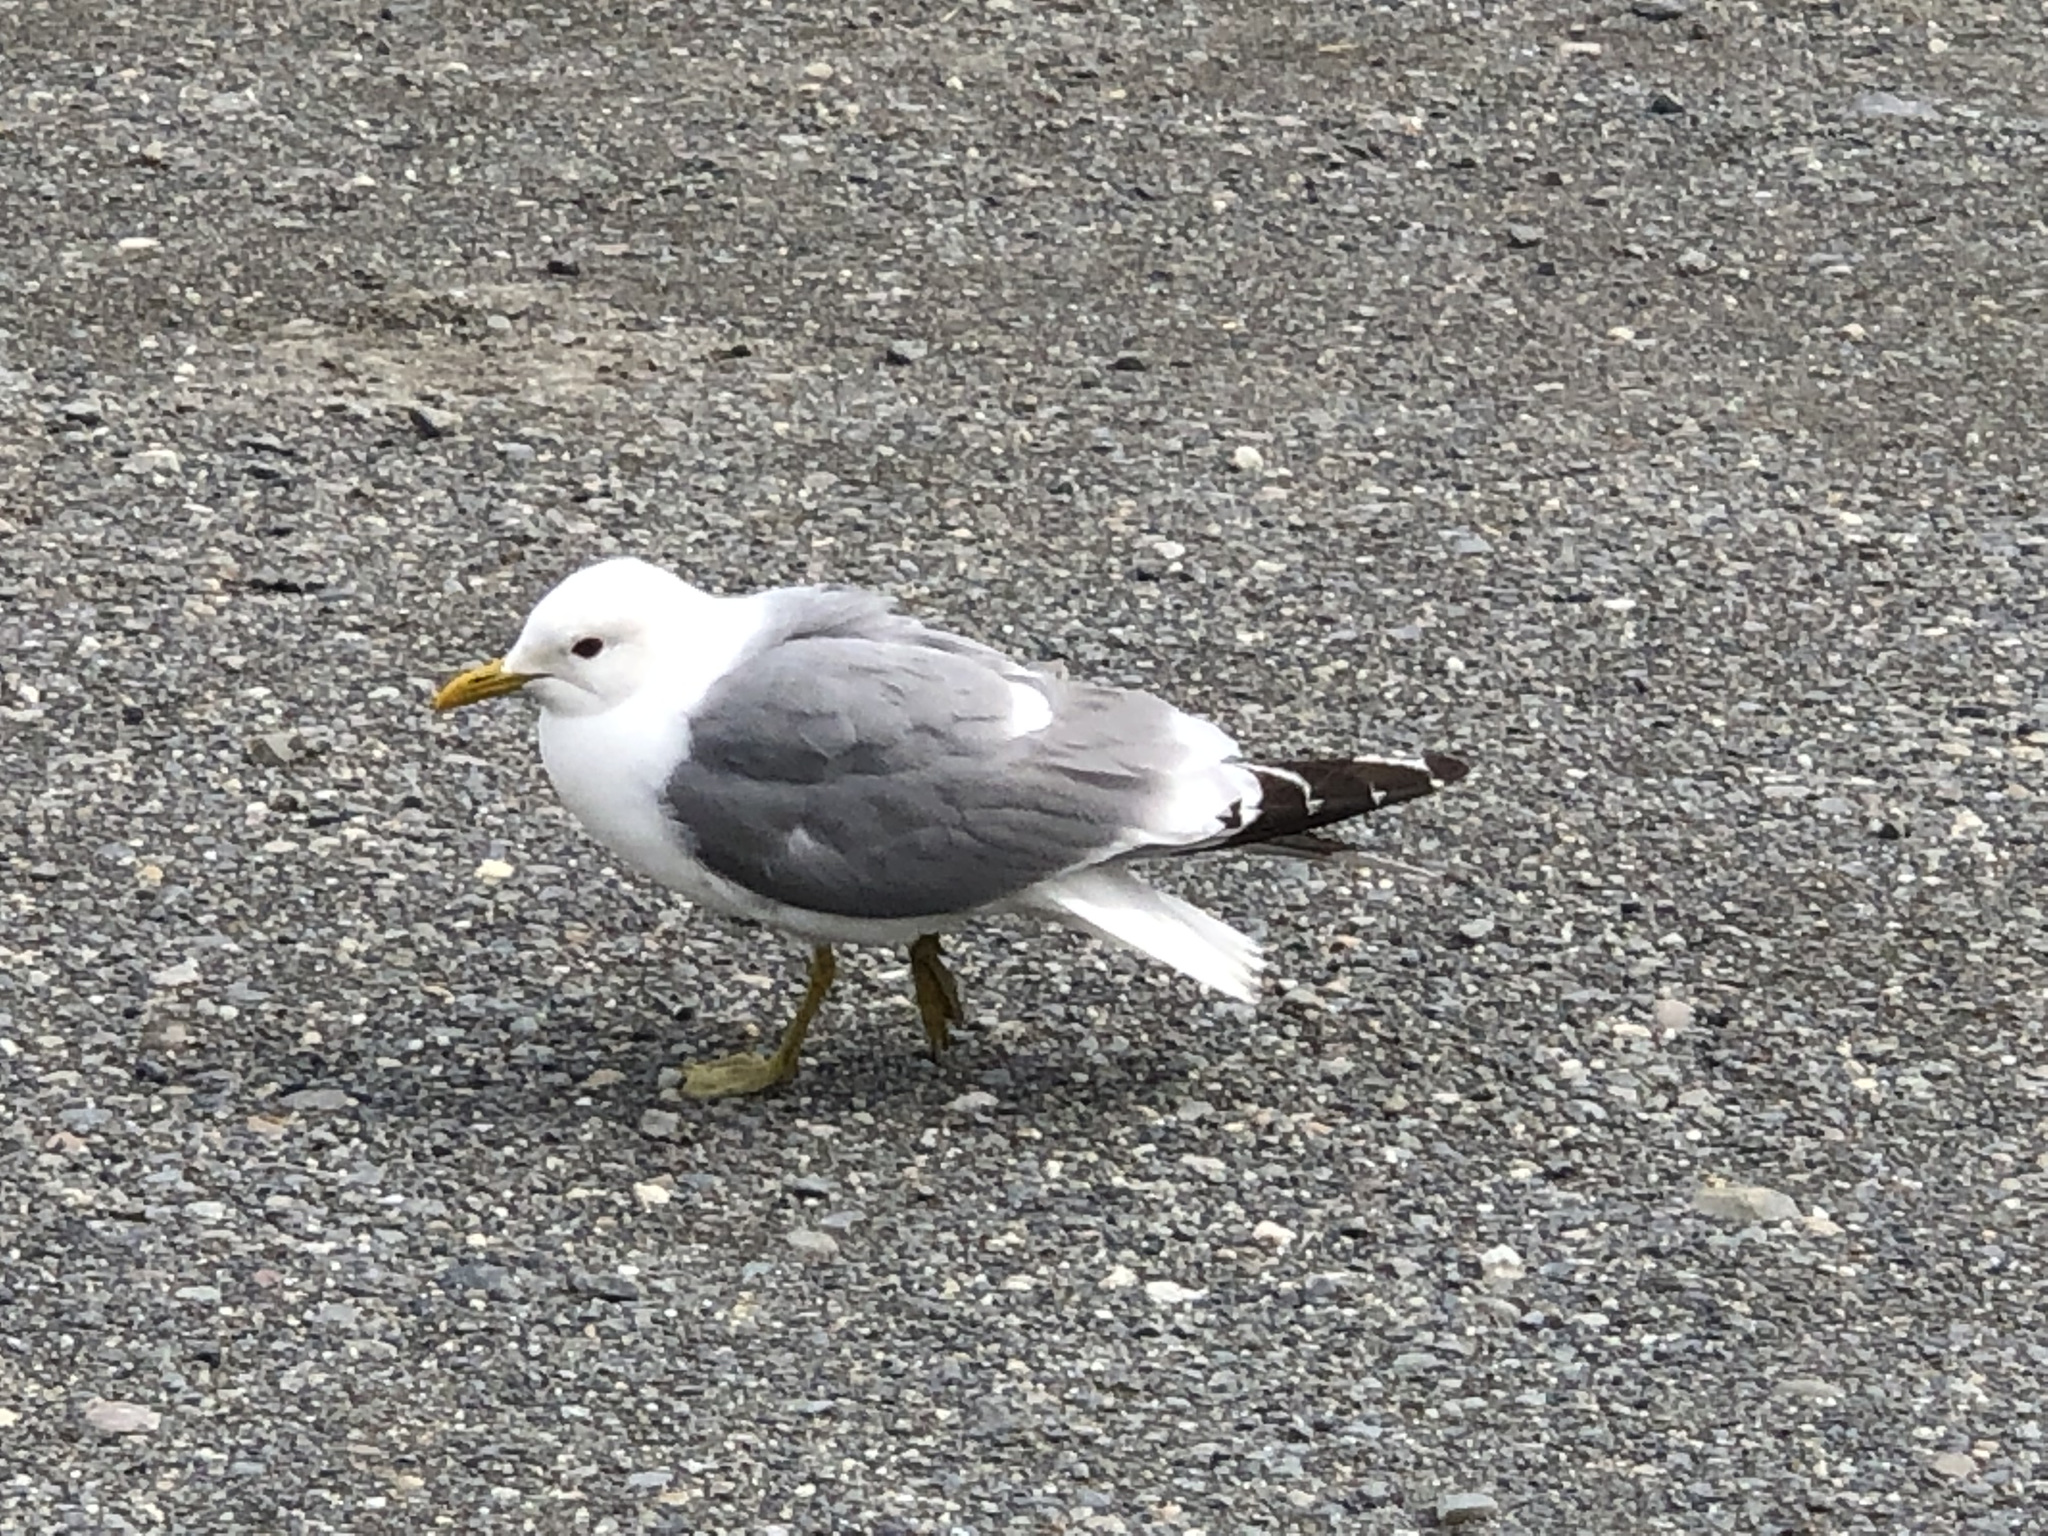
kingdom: Animalia
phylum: Chordata
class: Aves
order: Charadriiformes
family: Laridae
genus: Larus
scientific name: Larus brachyrhynchus
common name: Short-billed gull
